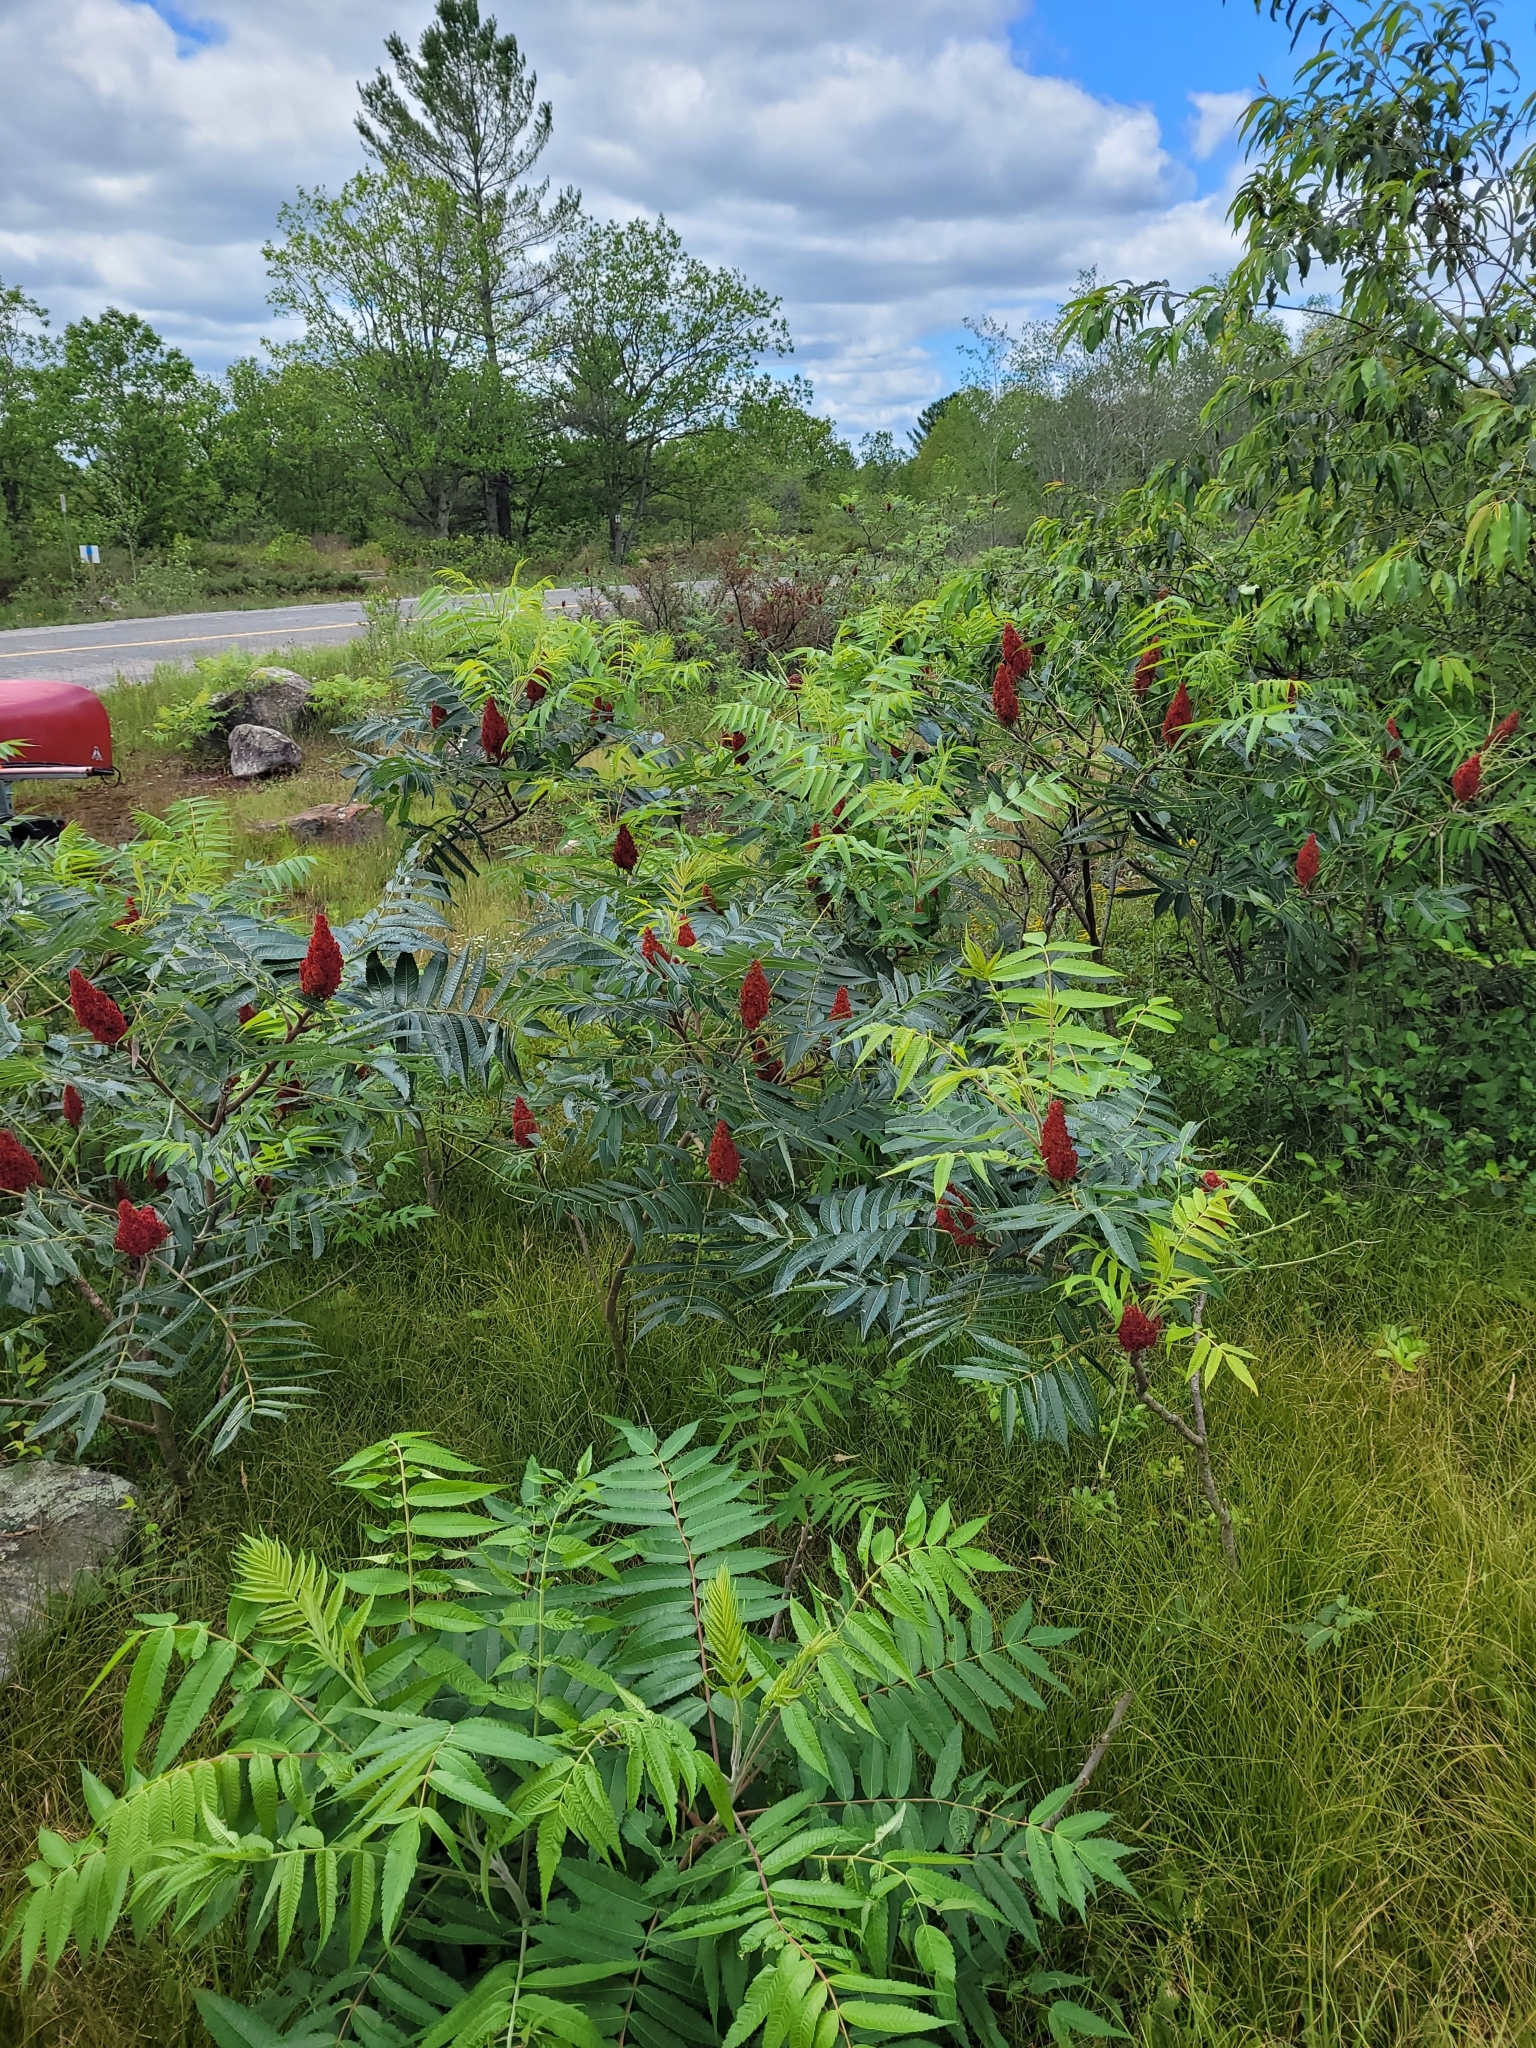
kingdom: Plantae
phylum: Tracheophyta
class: Magnoliopsida
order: Sapindales
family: Anacardiaceae
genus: Rhus
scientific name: Rhus typhina
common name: Staghorn sumac
